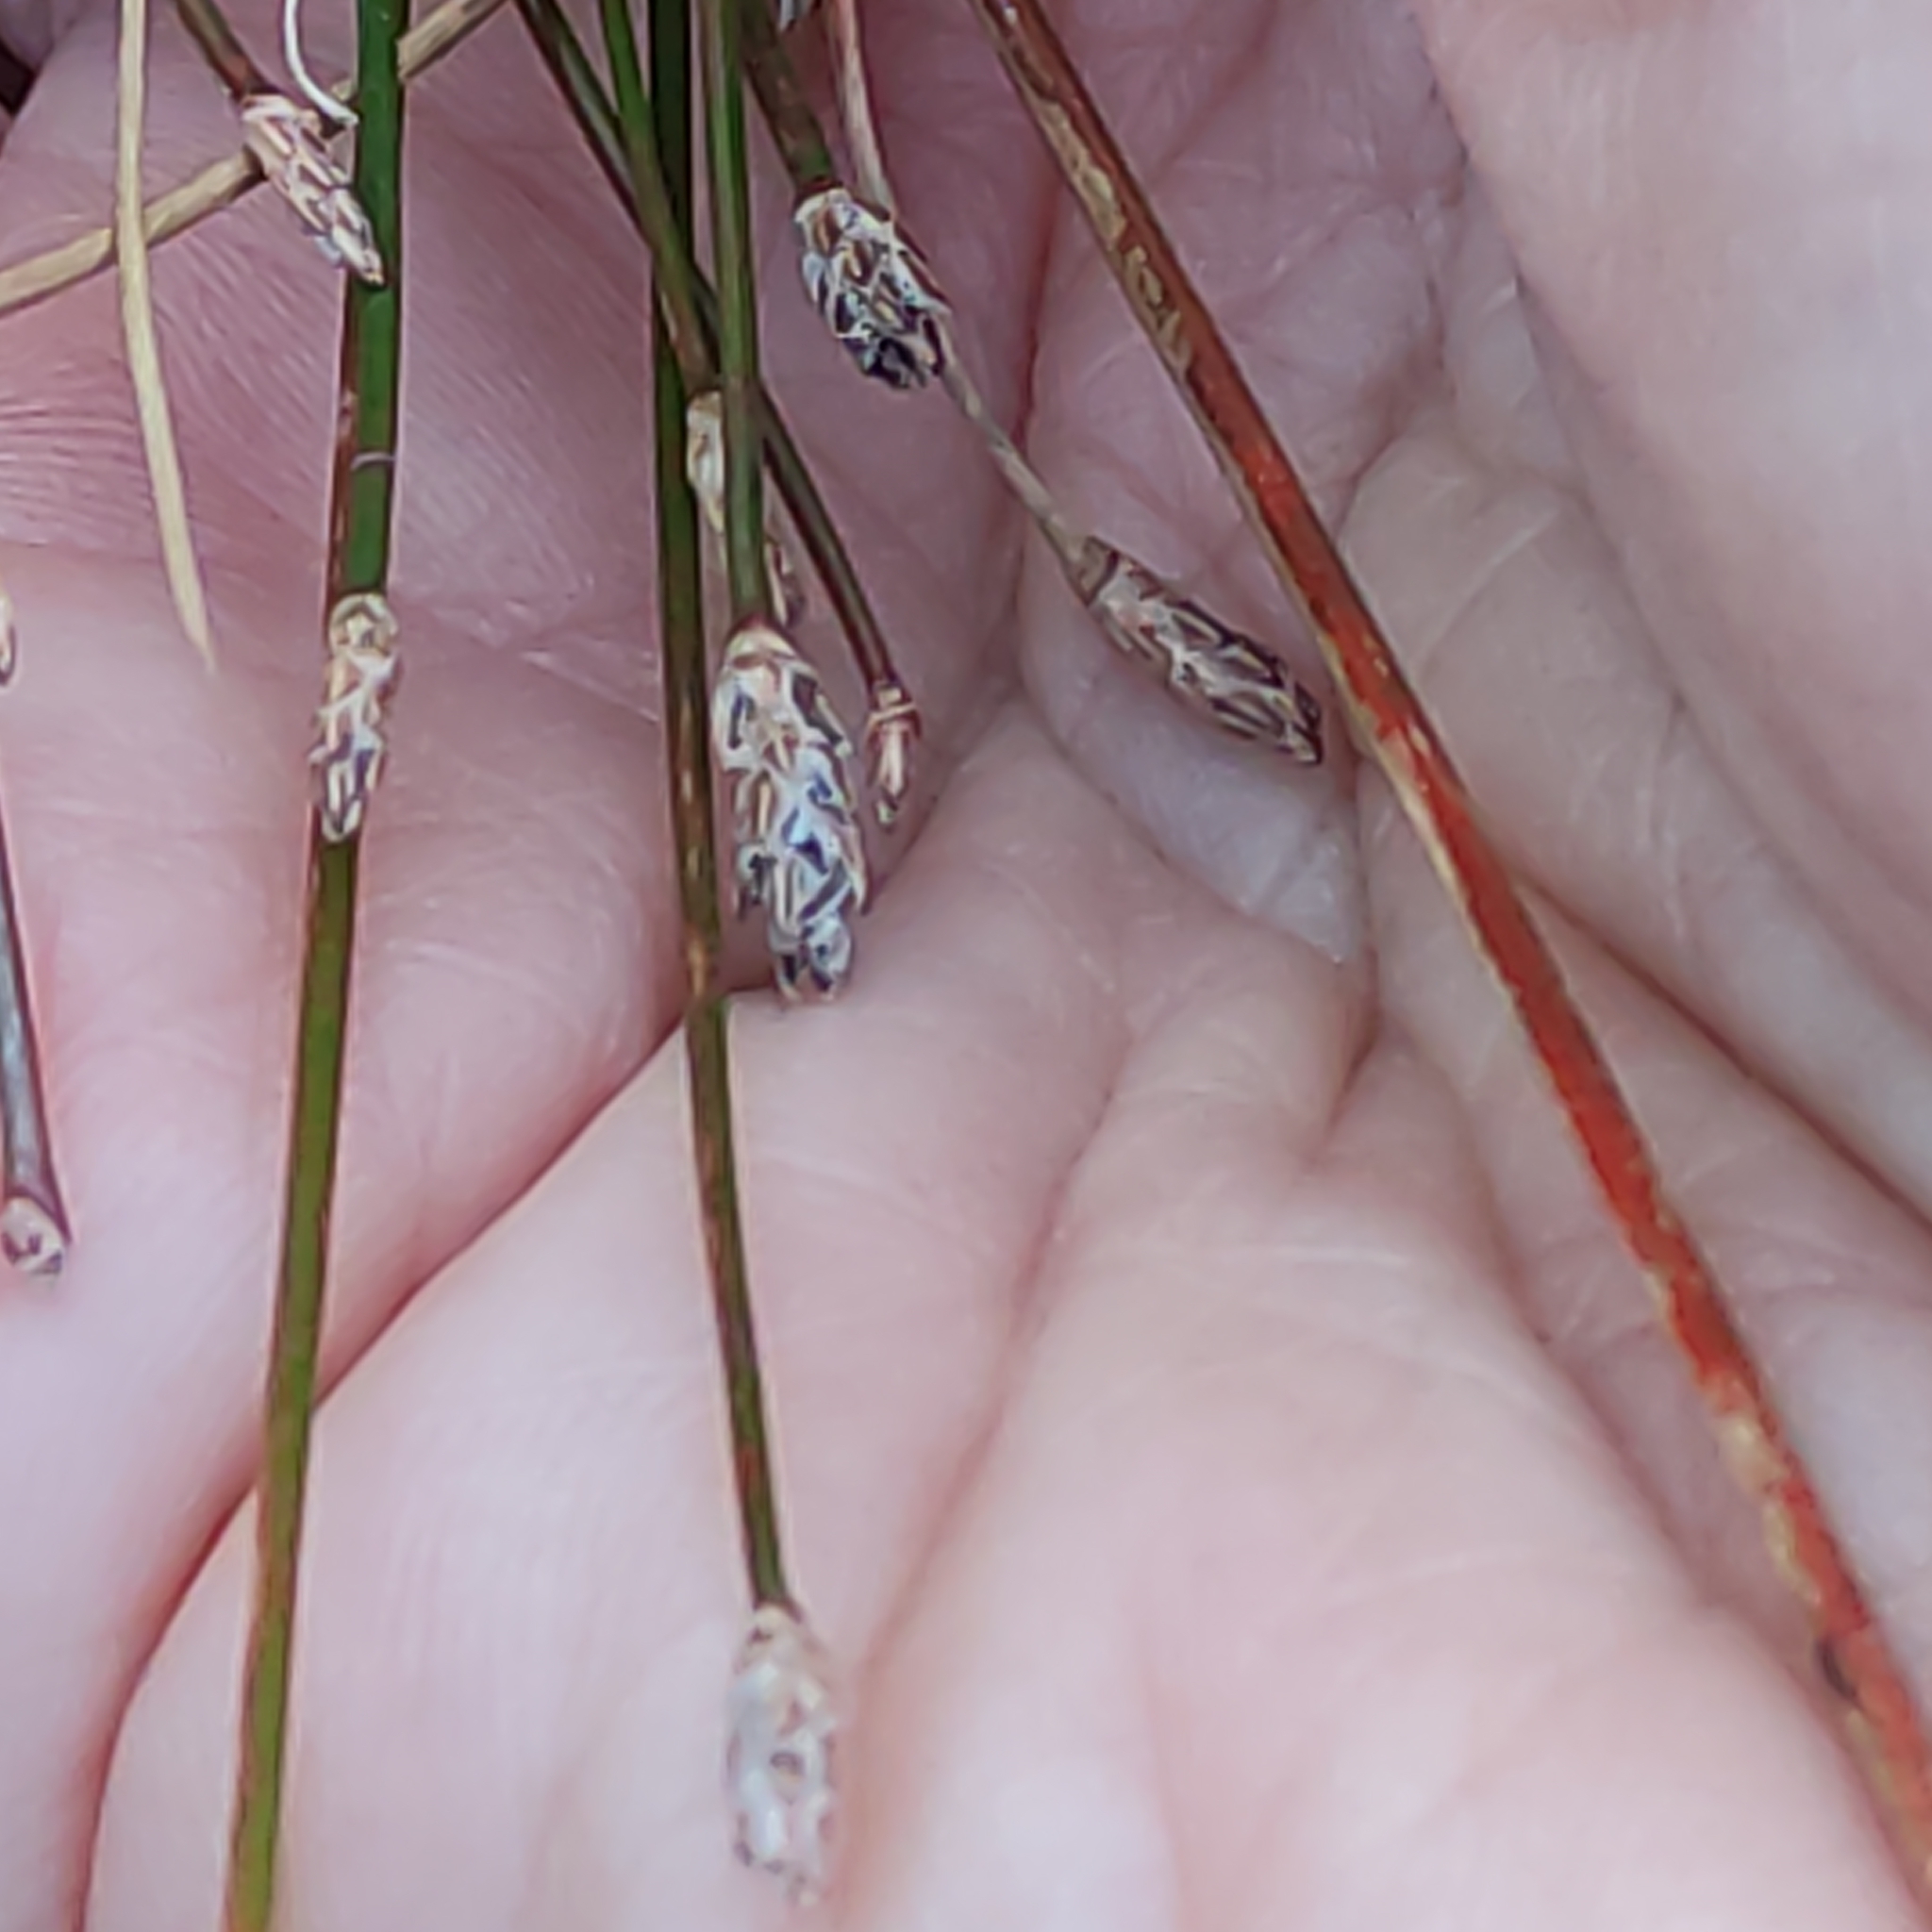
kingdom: Plantae
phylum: Tracheophyta
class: Liliopsida
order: Poales
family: Cyperaceae
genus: Eleocharis
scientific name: Eleocharis acuta
